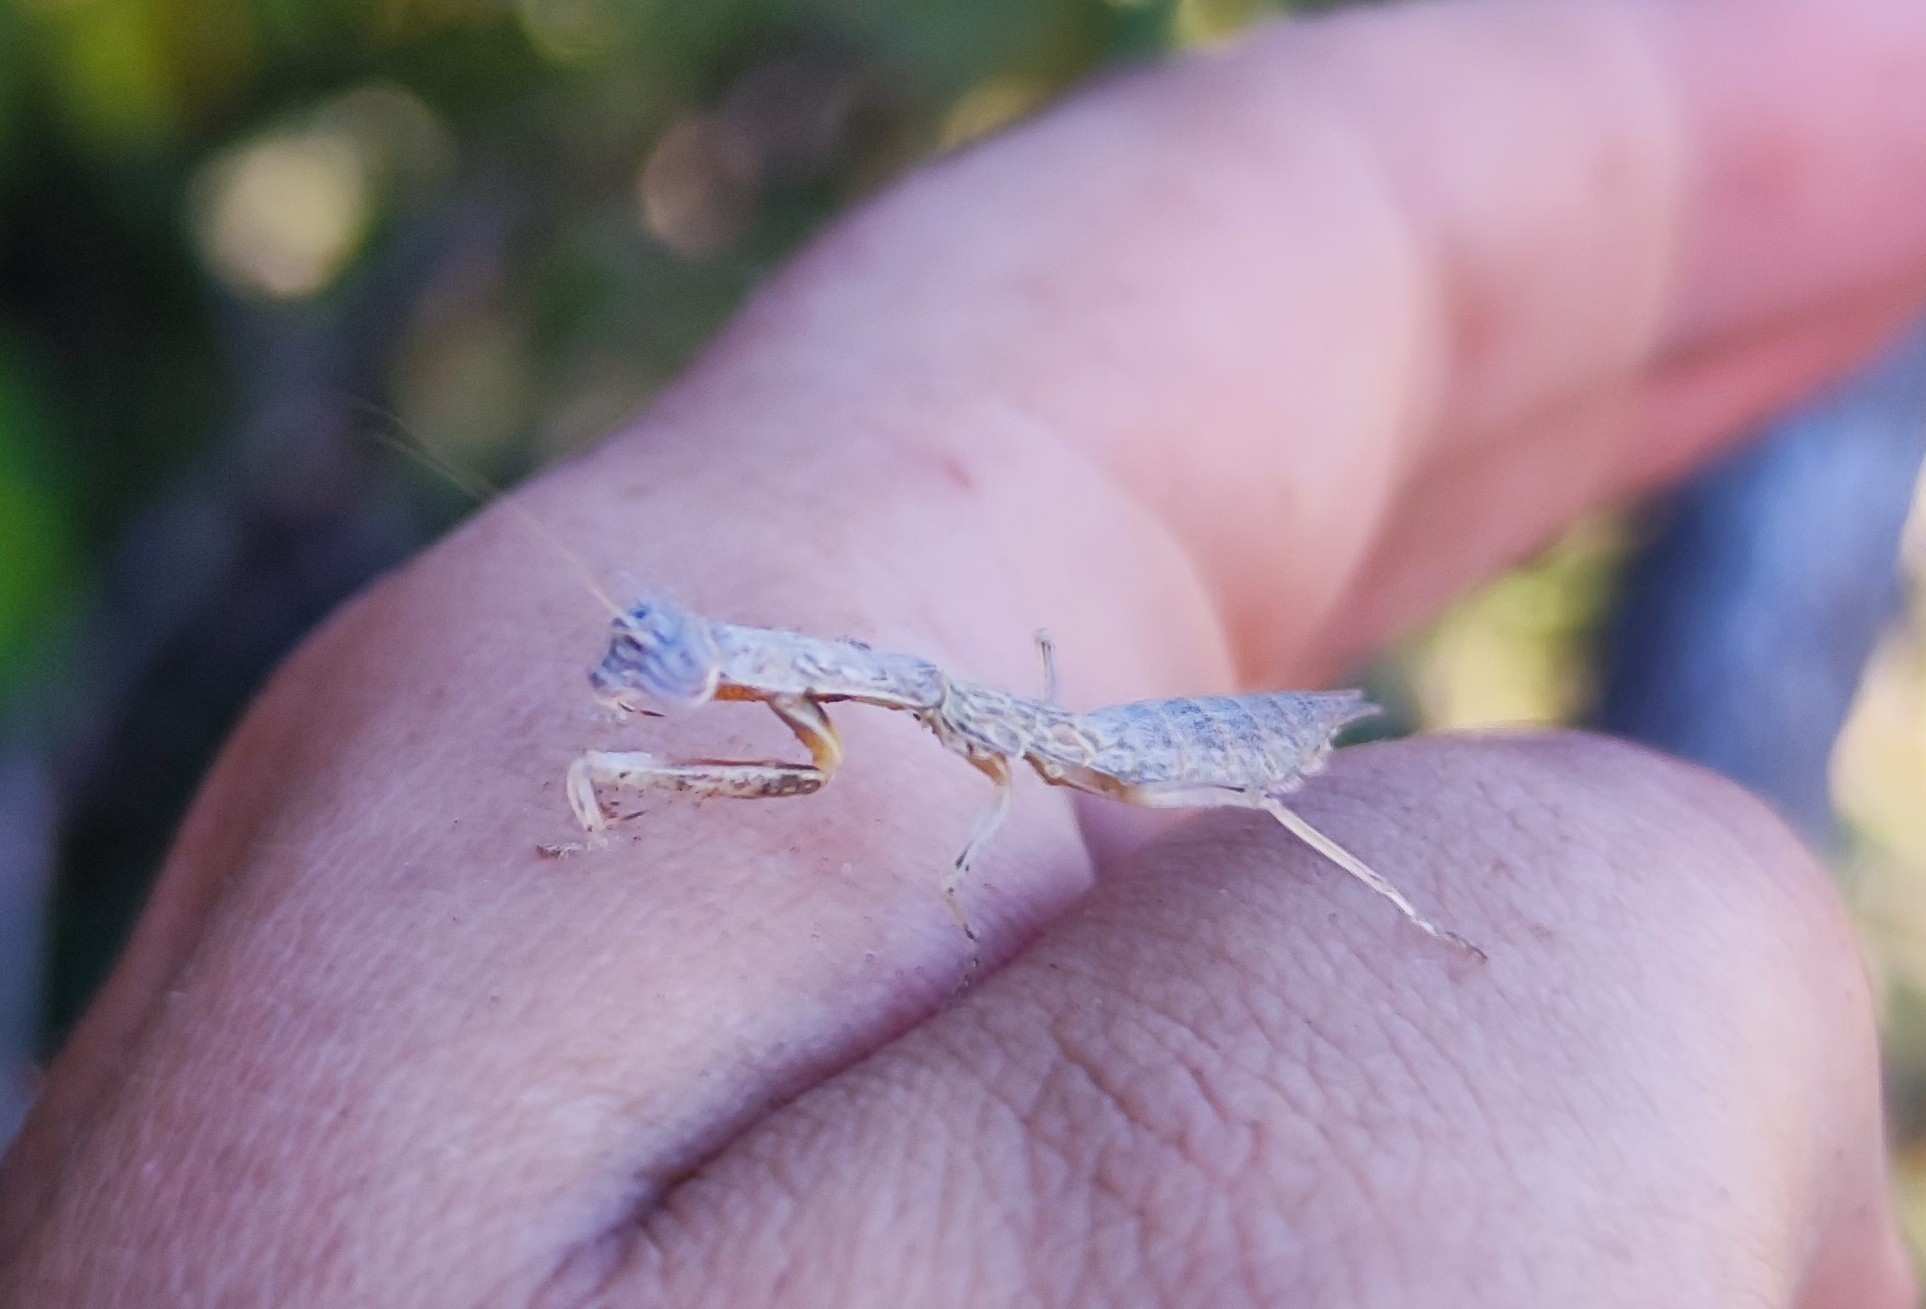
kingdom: Animalia
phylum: Arthropoda
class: Insecta
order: Mantodea
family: Photinaidae
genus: Paraphotina
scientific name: Paraphotina caatingaensis
